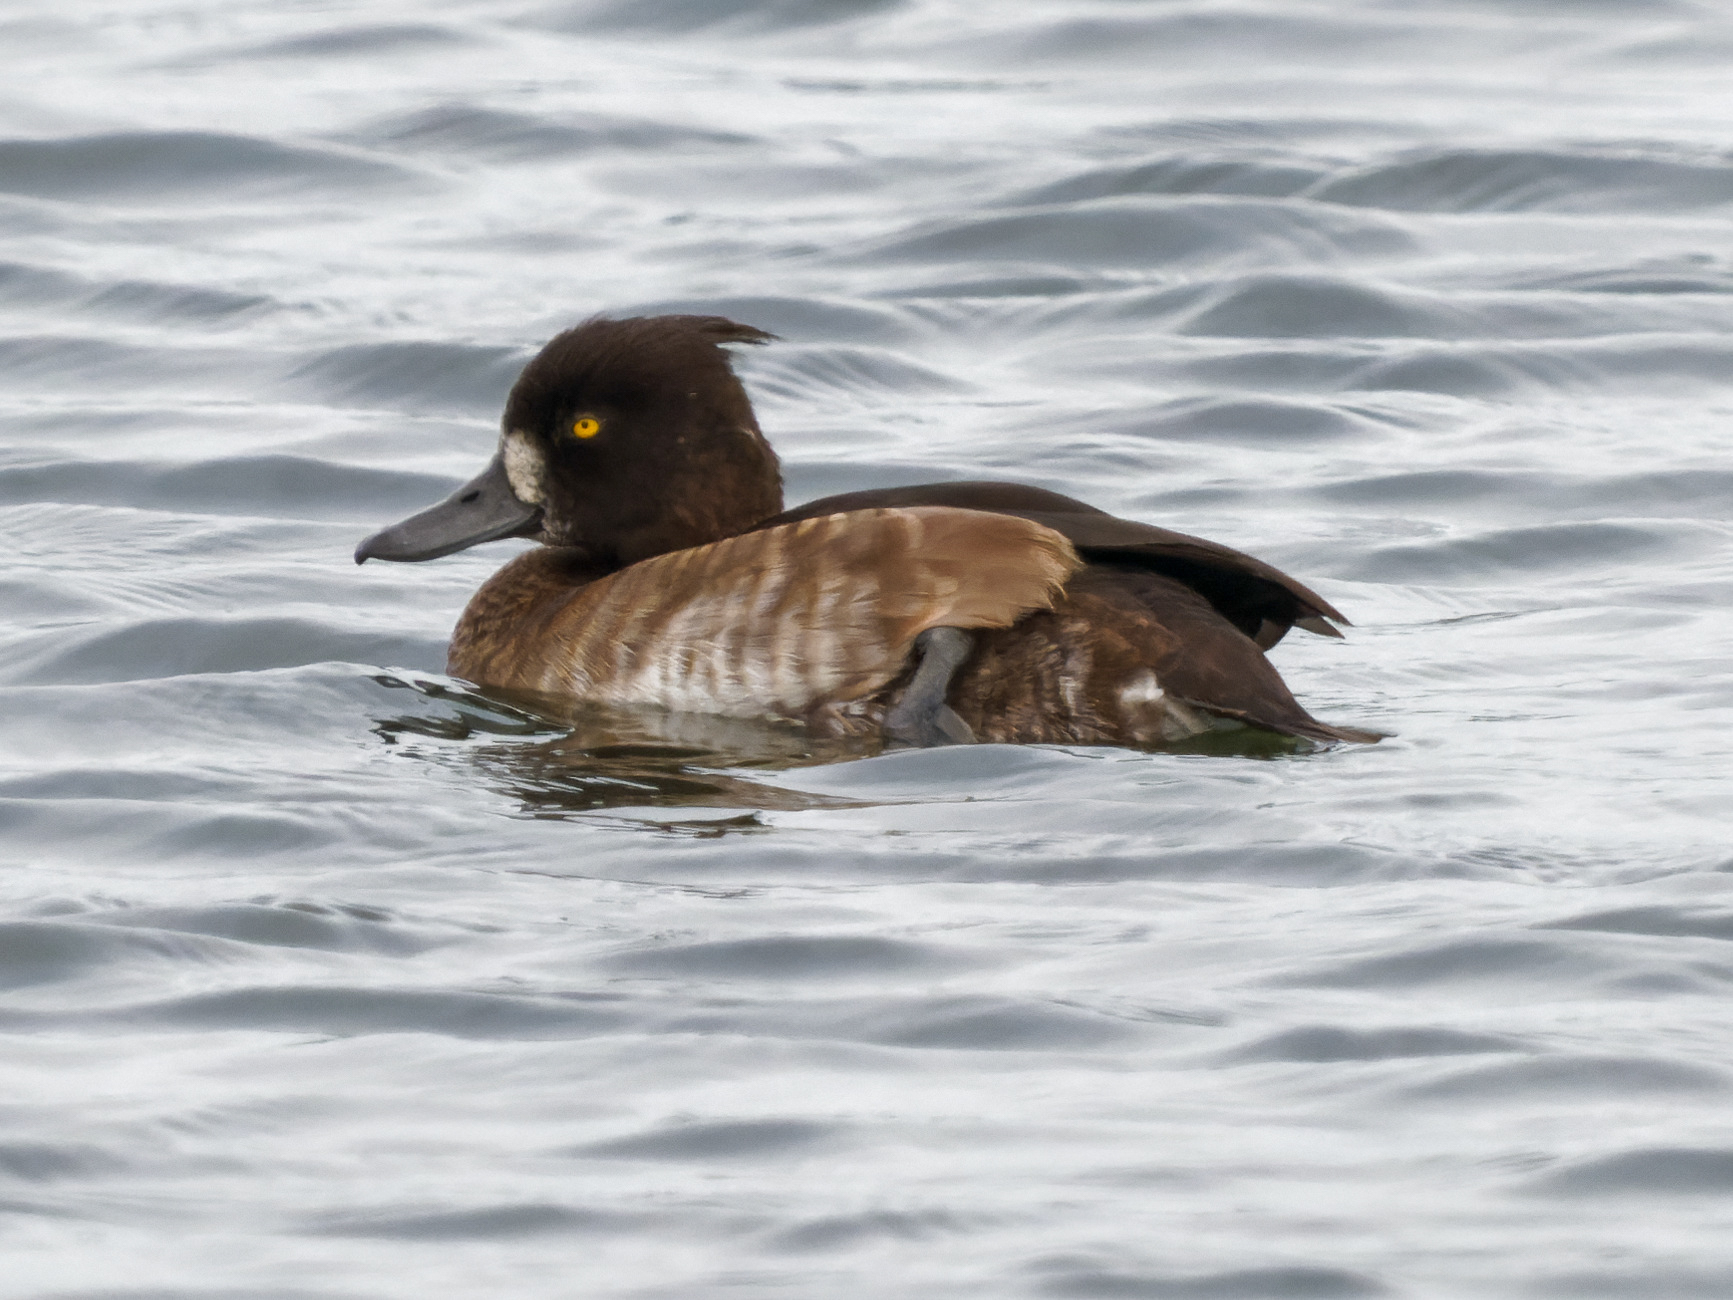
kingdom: Animalia
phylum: Chordata
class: Aves
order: Anseriformes
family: Anatidae
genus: Aythya
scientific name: Aythya fuligula
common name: Tufted duck
